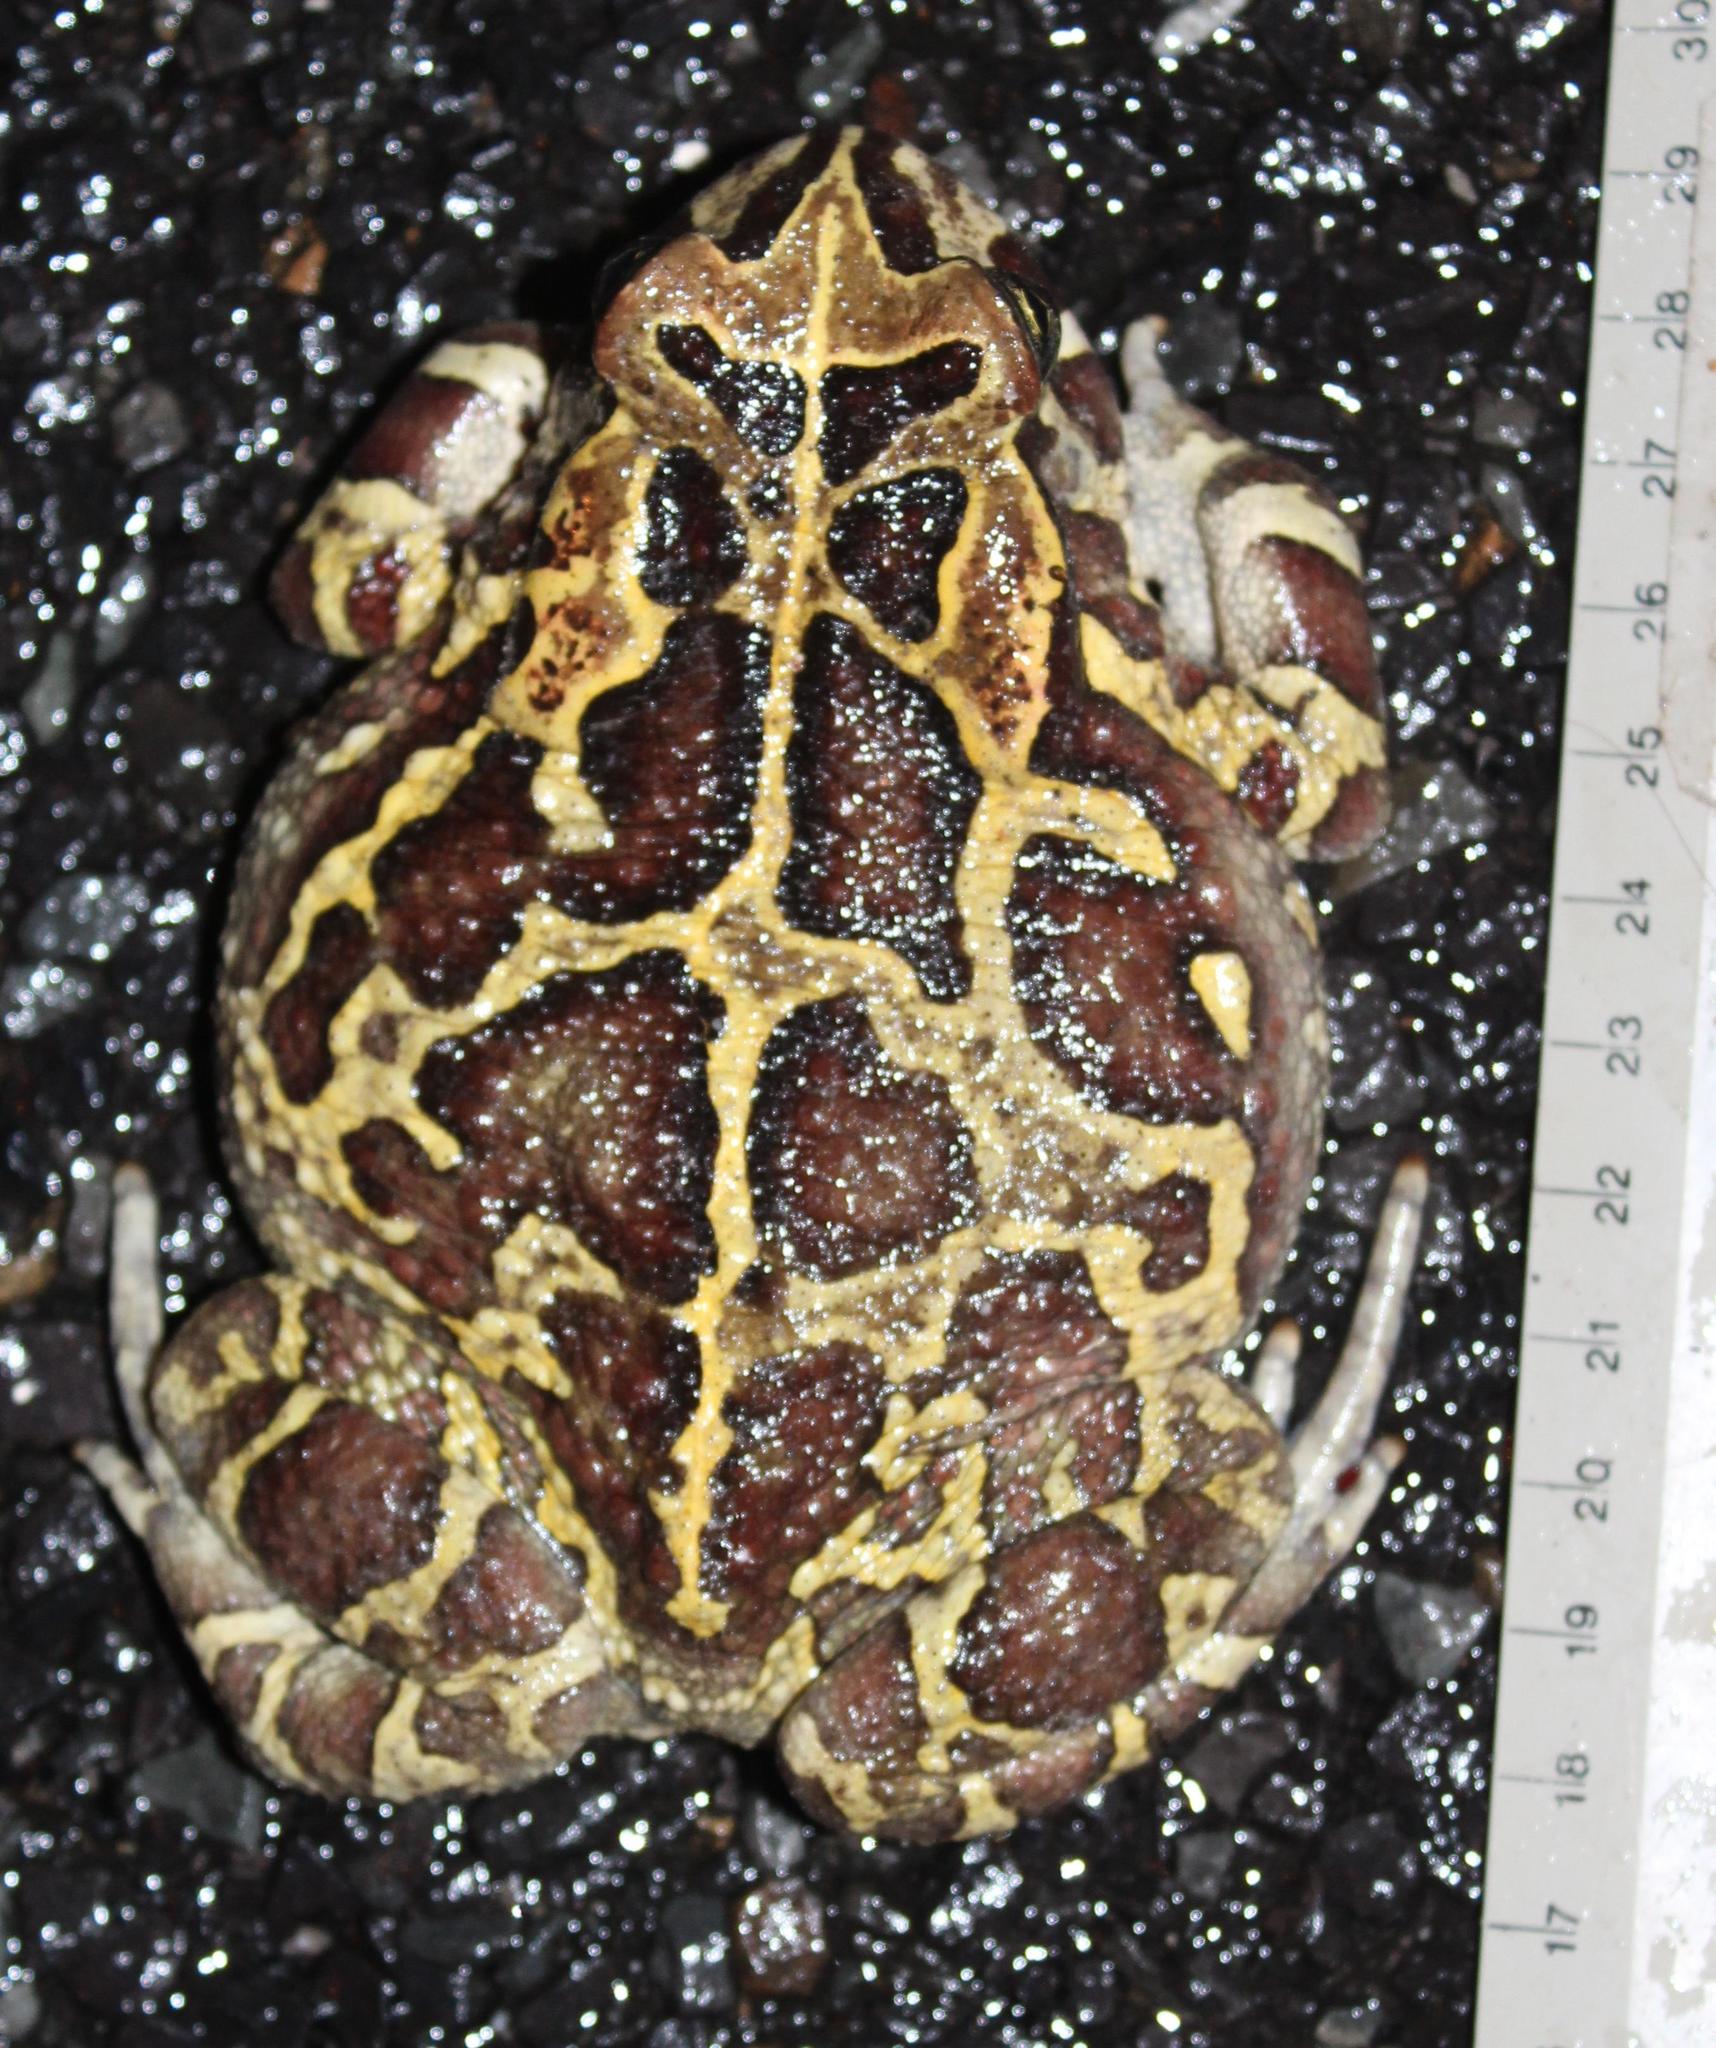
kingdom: Animalia
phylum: Chordata
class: Amphibia
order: Anura
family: Bufonidae
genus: Sclerophrys
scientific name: Sclerophrys pantherina
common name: Panther toad
